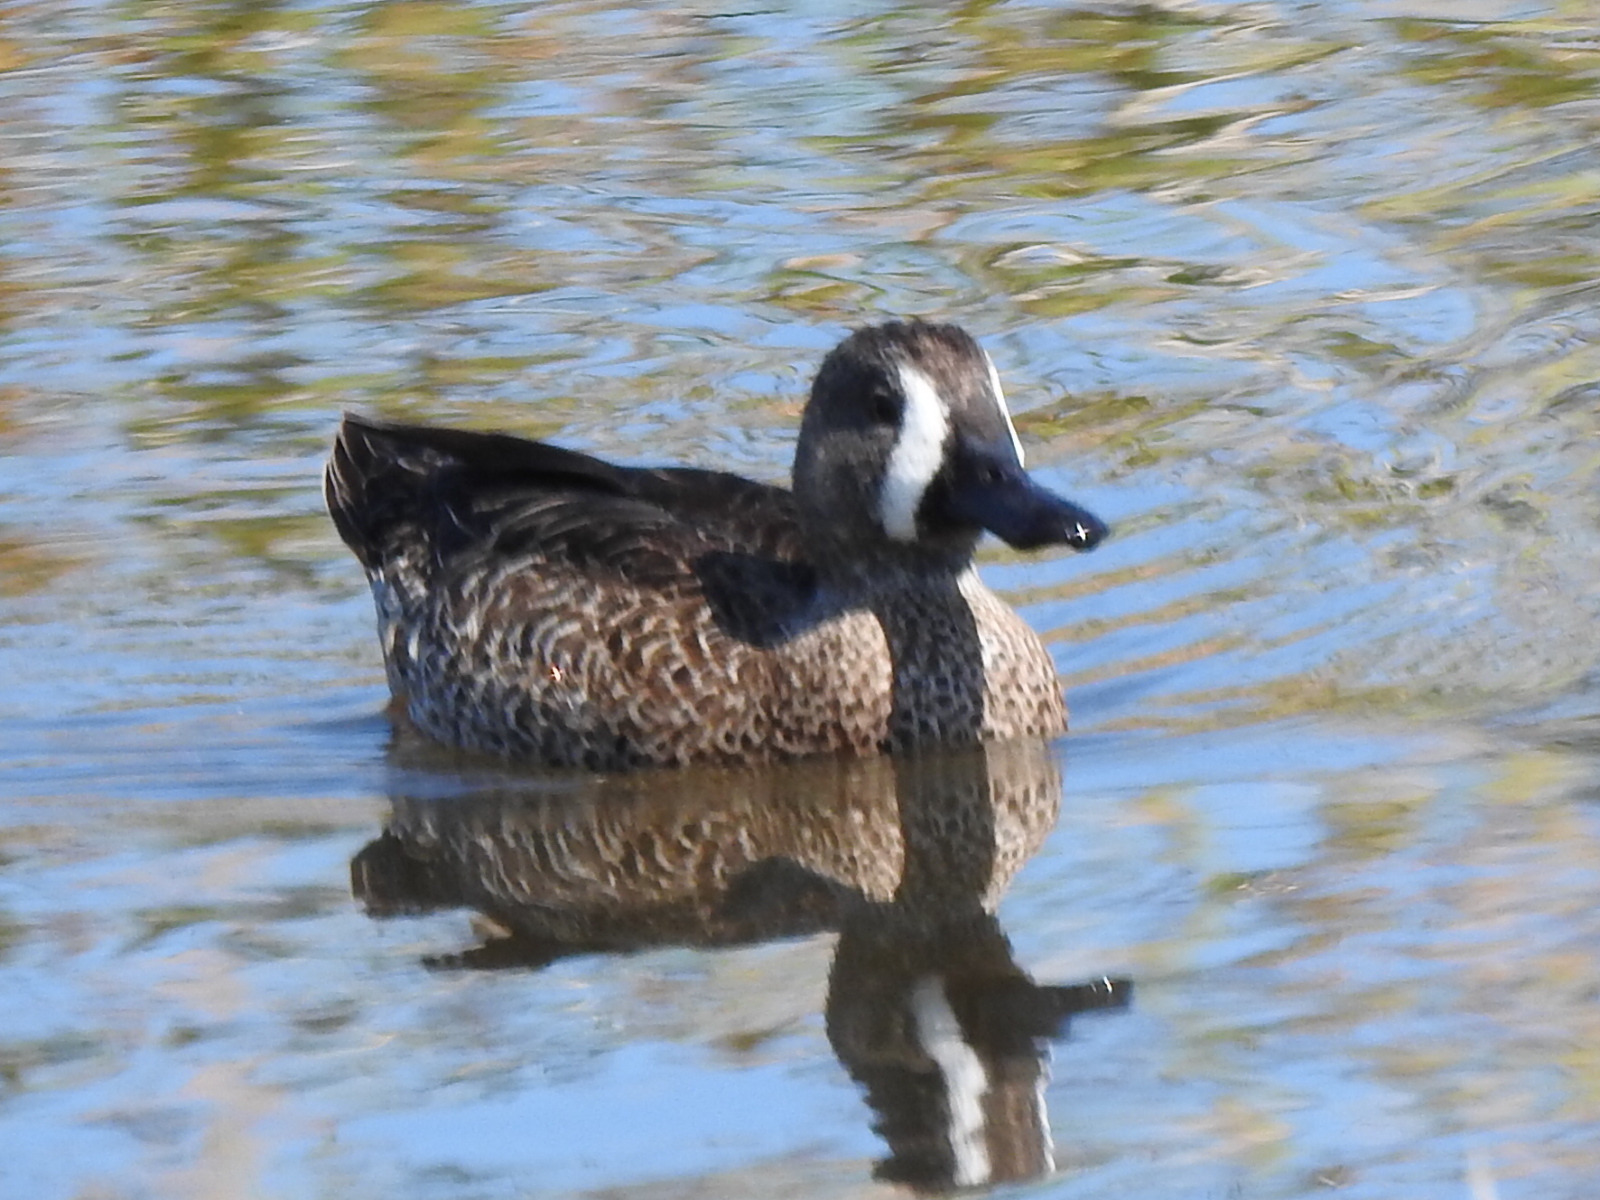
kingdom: Animalia
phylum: Chordata
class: Aves
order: Anseriformes
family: Anatidae
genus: Spatula
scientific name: Spatula discors
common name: Blue-winged teal
